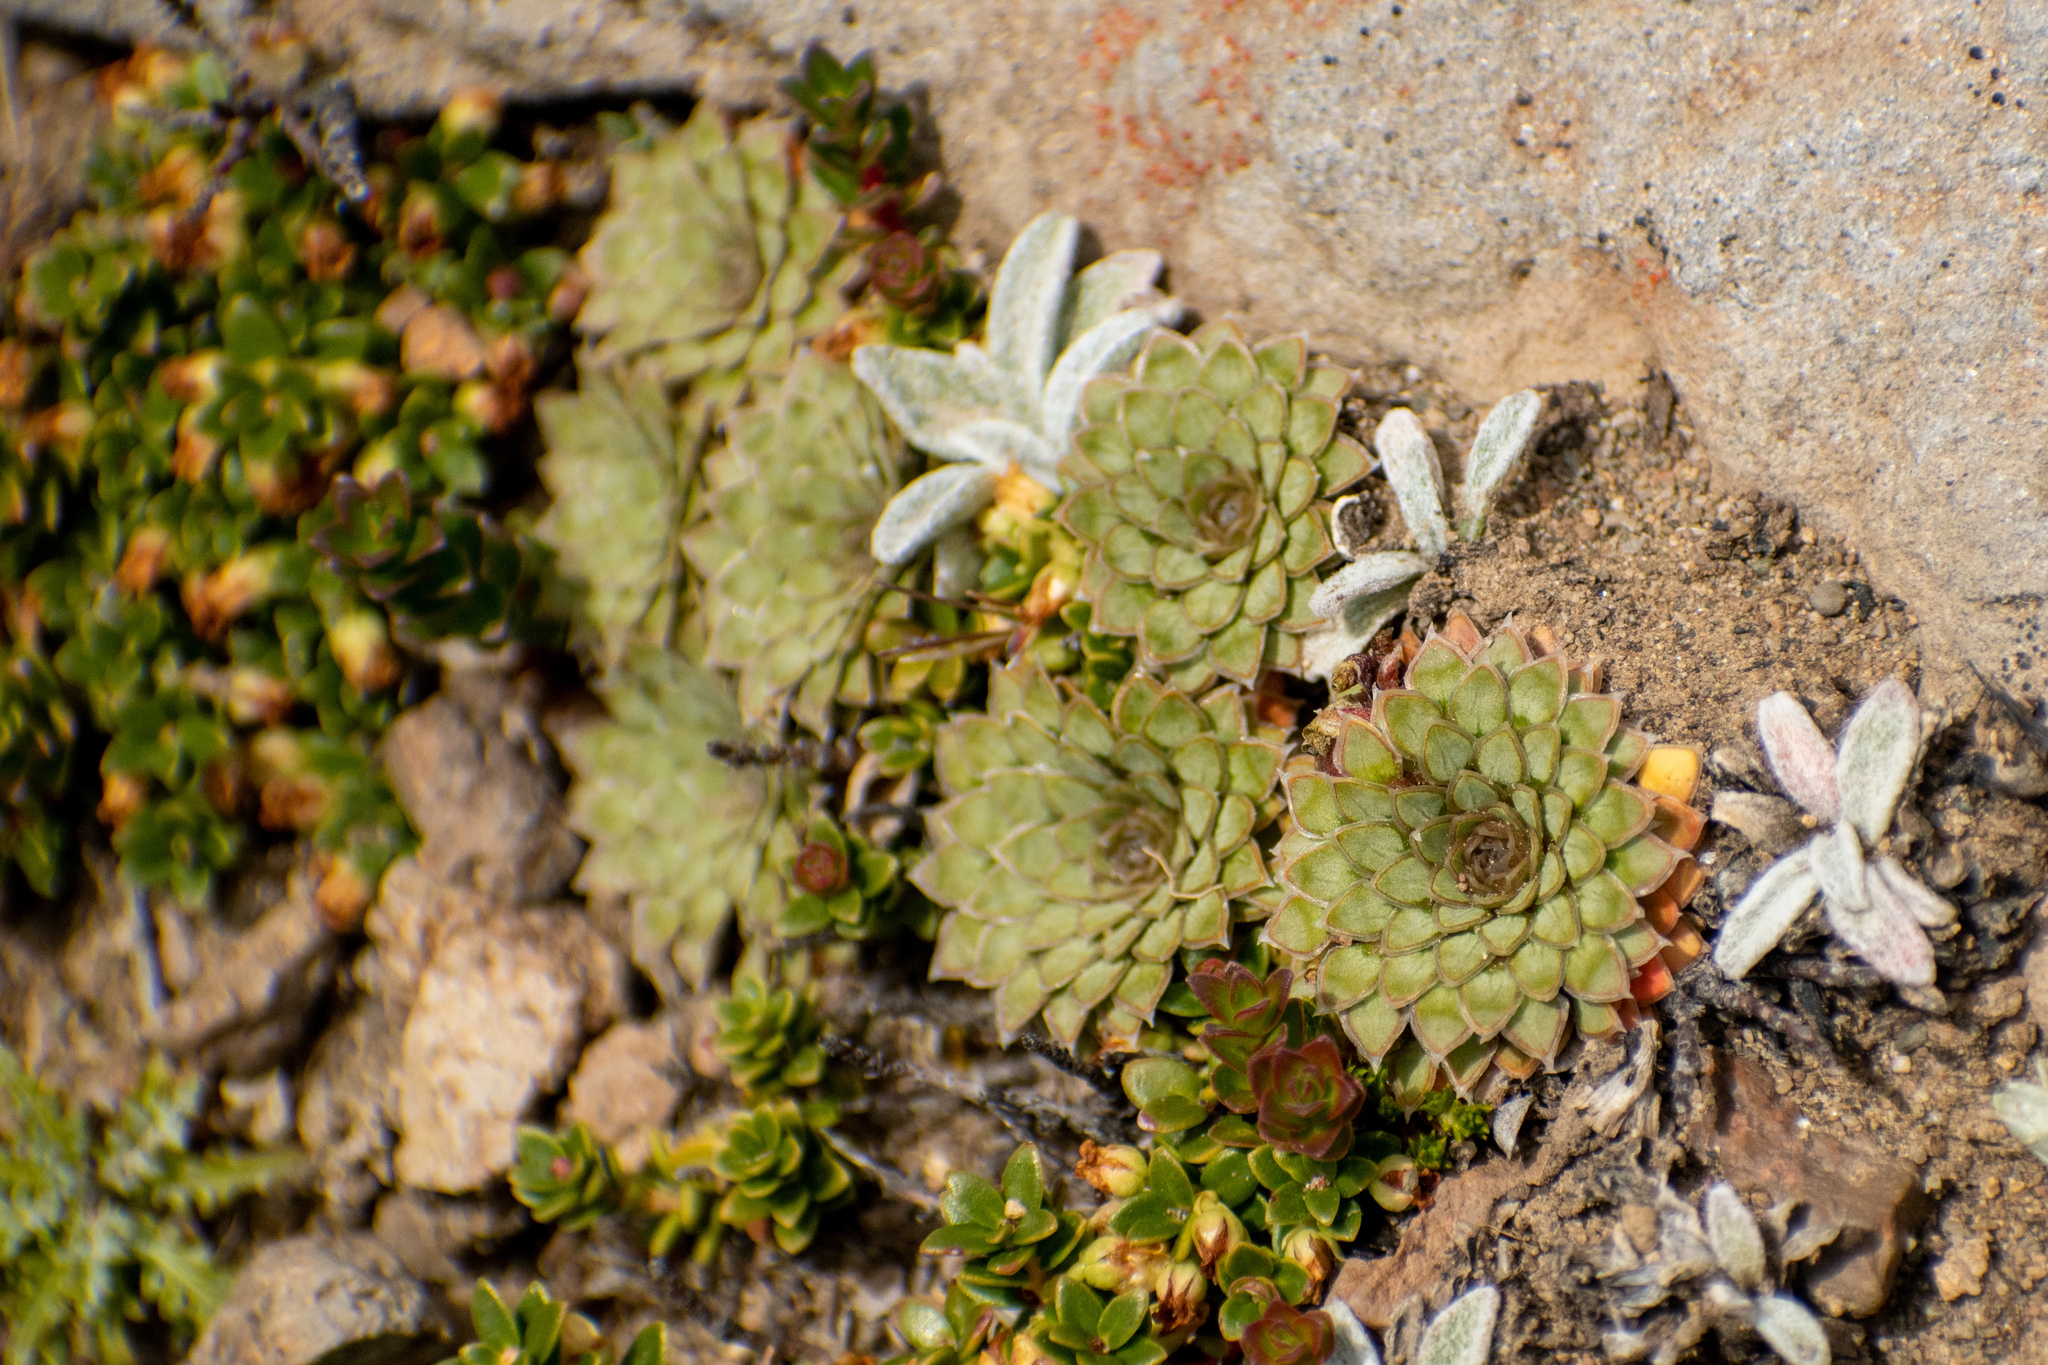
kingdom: Plantae
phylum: Tracheophyta
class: Magnoliopsida
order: Malpighiales
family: Violaceae
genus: Viola
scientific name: Viola auricolor
